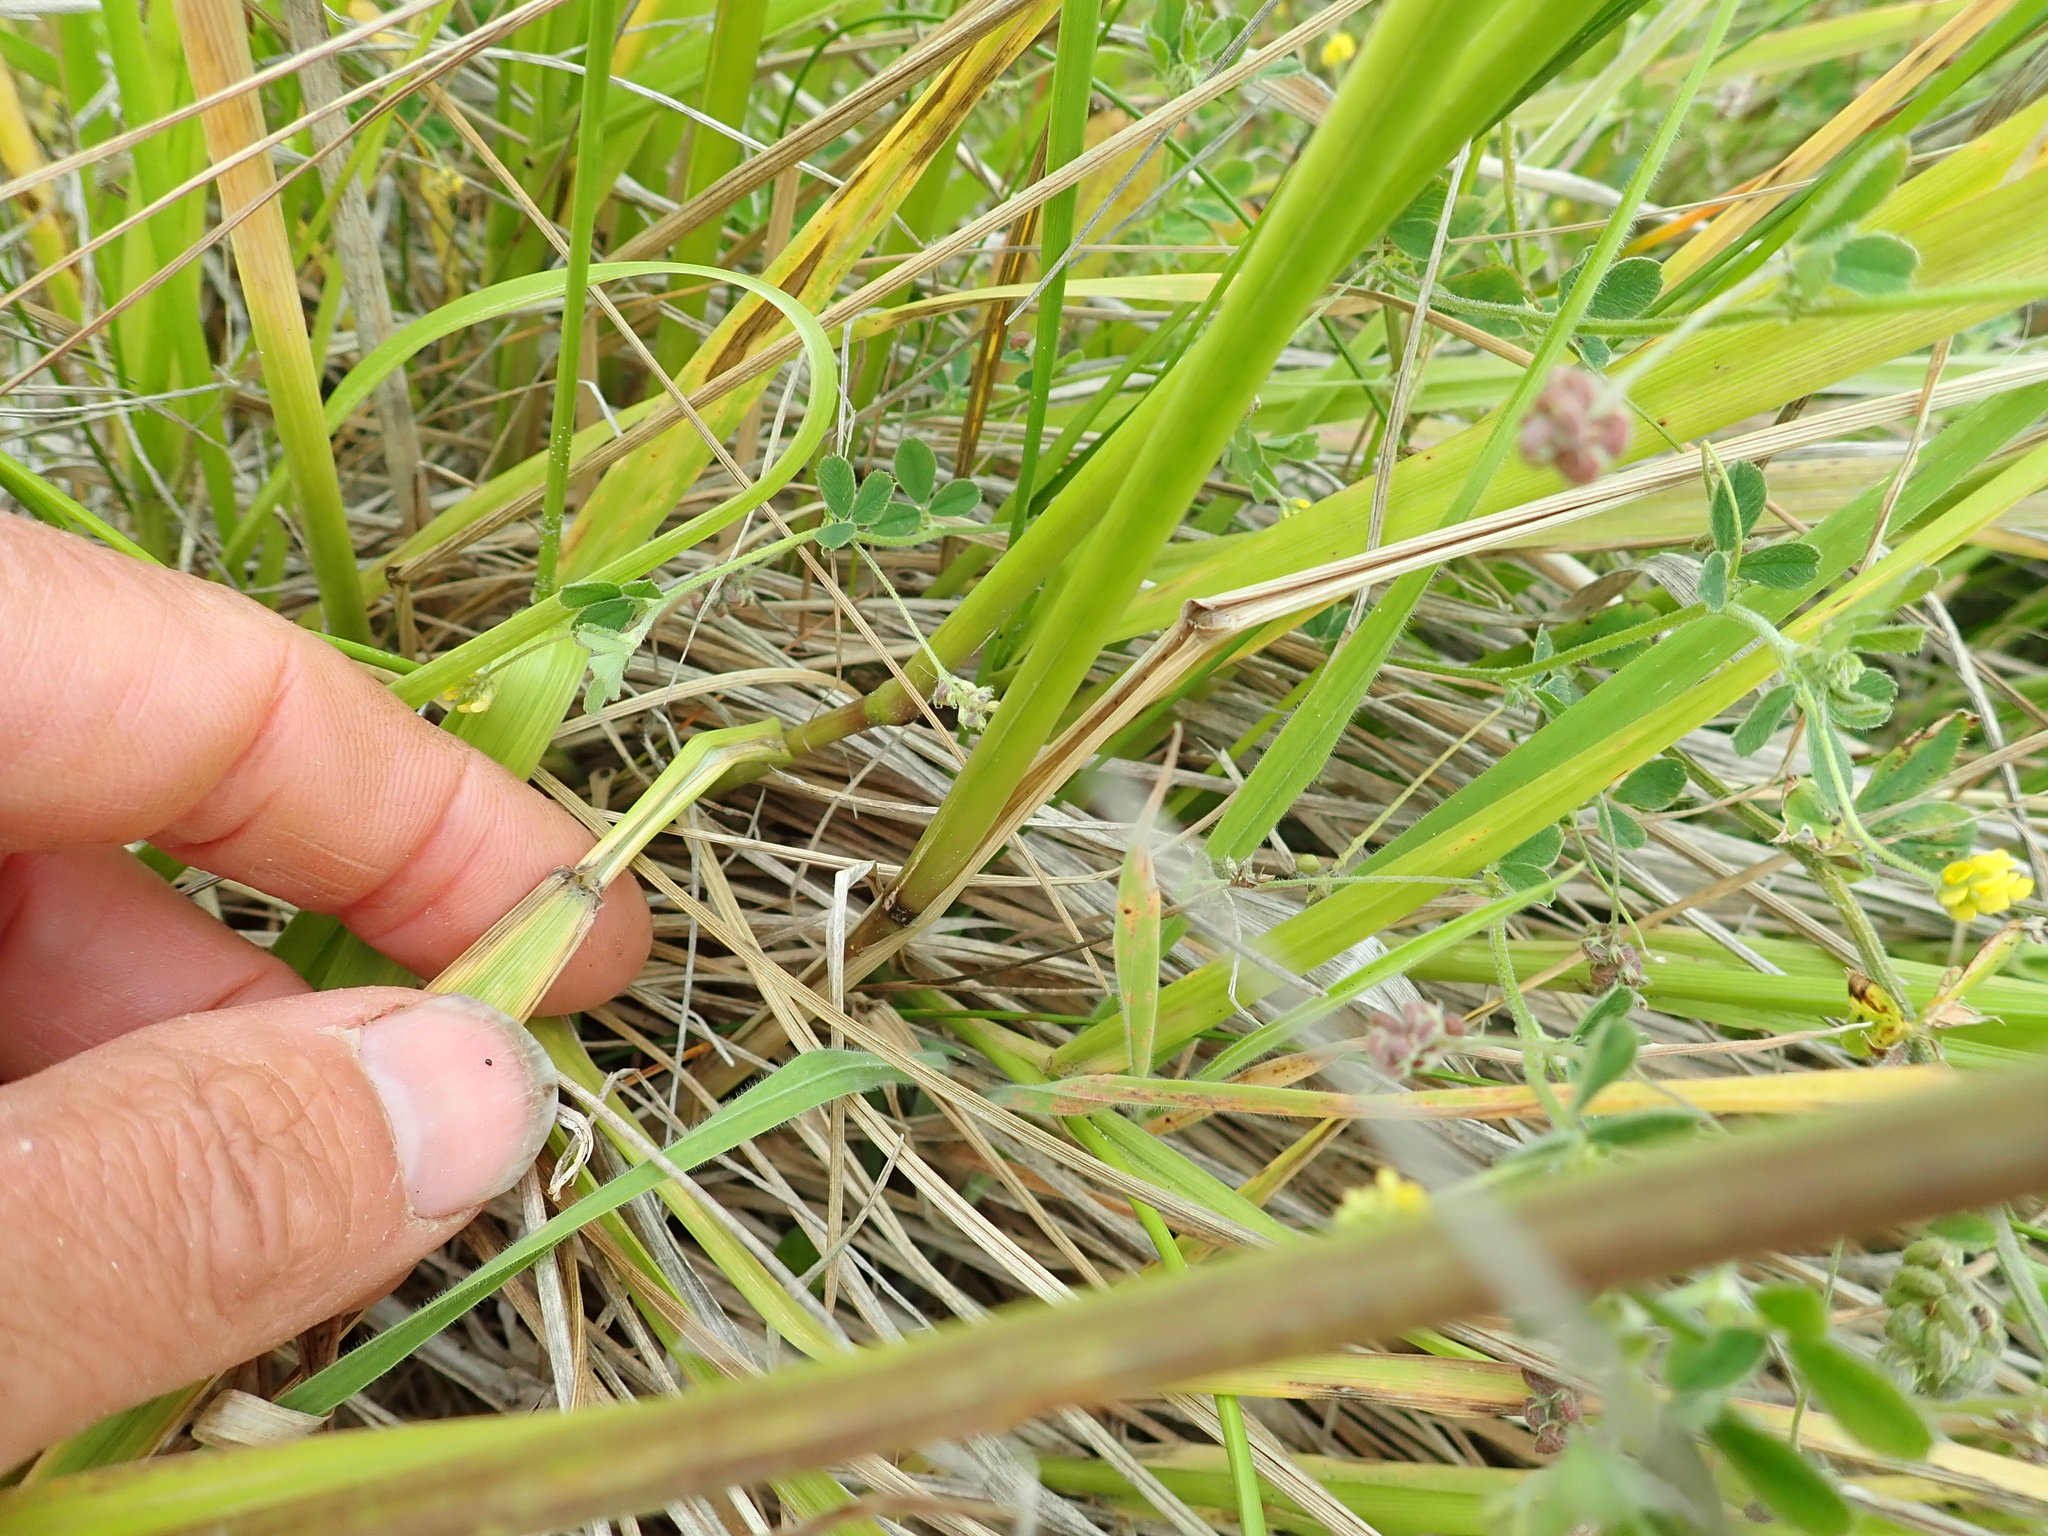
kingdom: Plantae
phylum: Tracheophyta
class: Liliopsida
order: Poales
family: Poaceae
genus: Lolium
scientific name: Lolium arundinaceum
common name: Reed fescue
